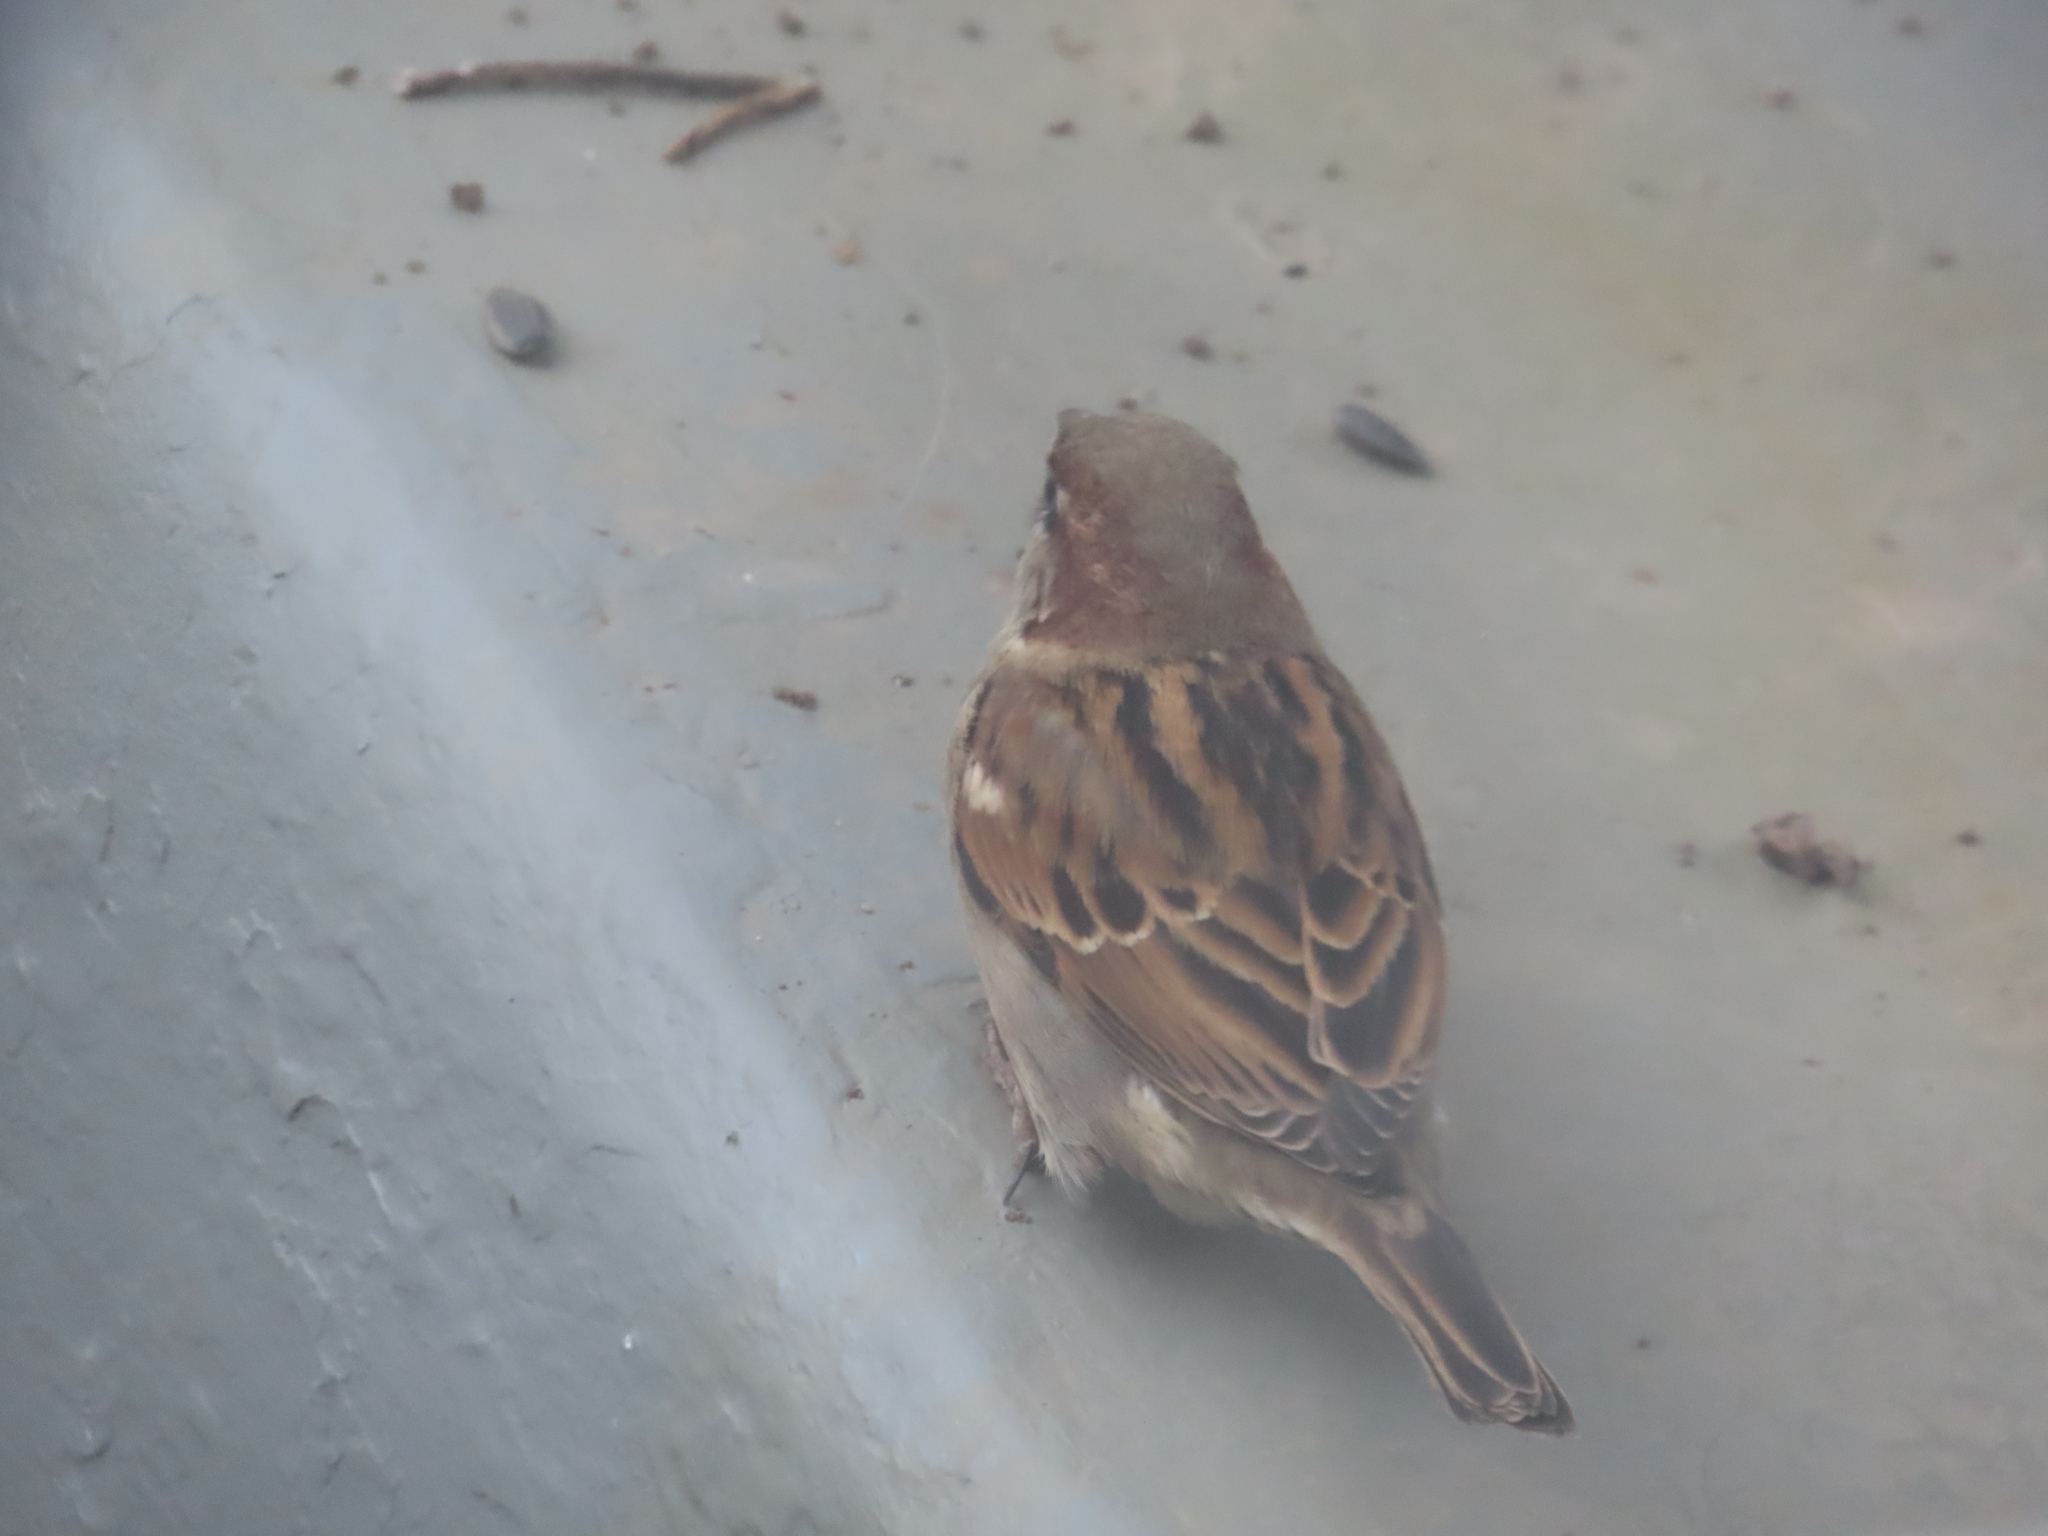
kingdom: Animalia
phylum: Chordata
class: Aves
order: Passeriformes
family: Passeridae
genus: Passer
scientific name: Passer domesticus
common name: House sparrow
